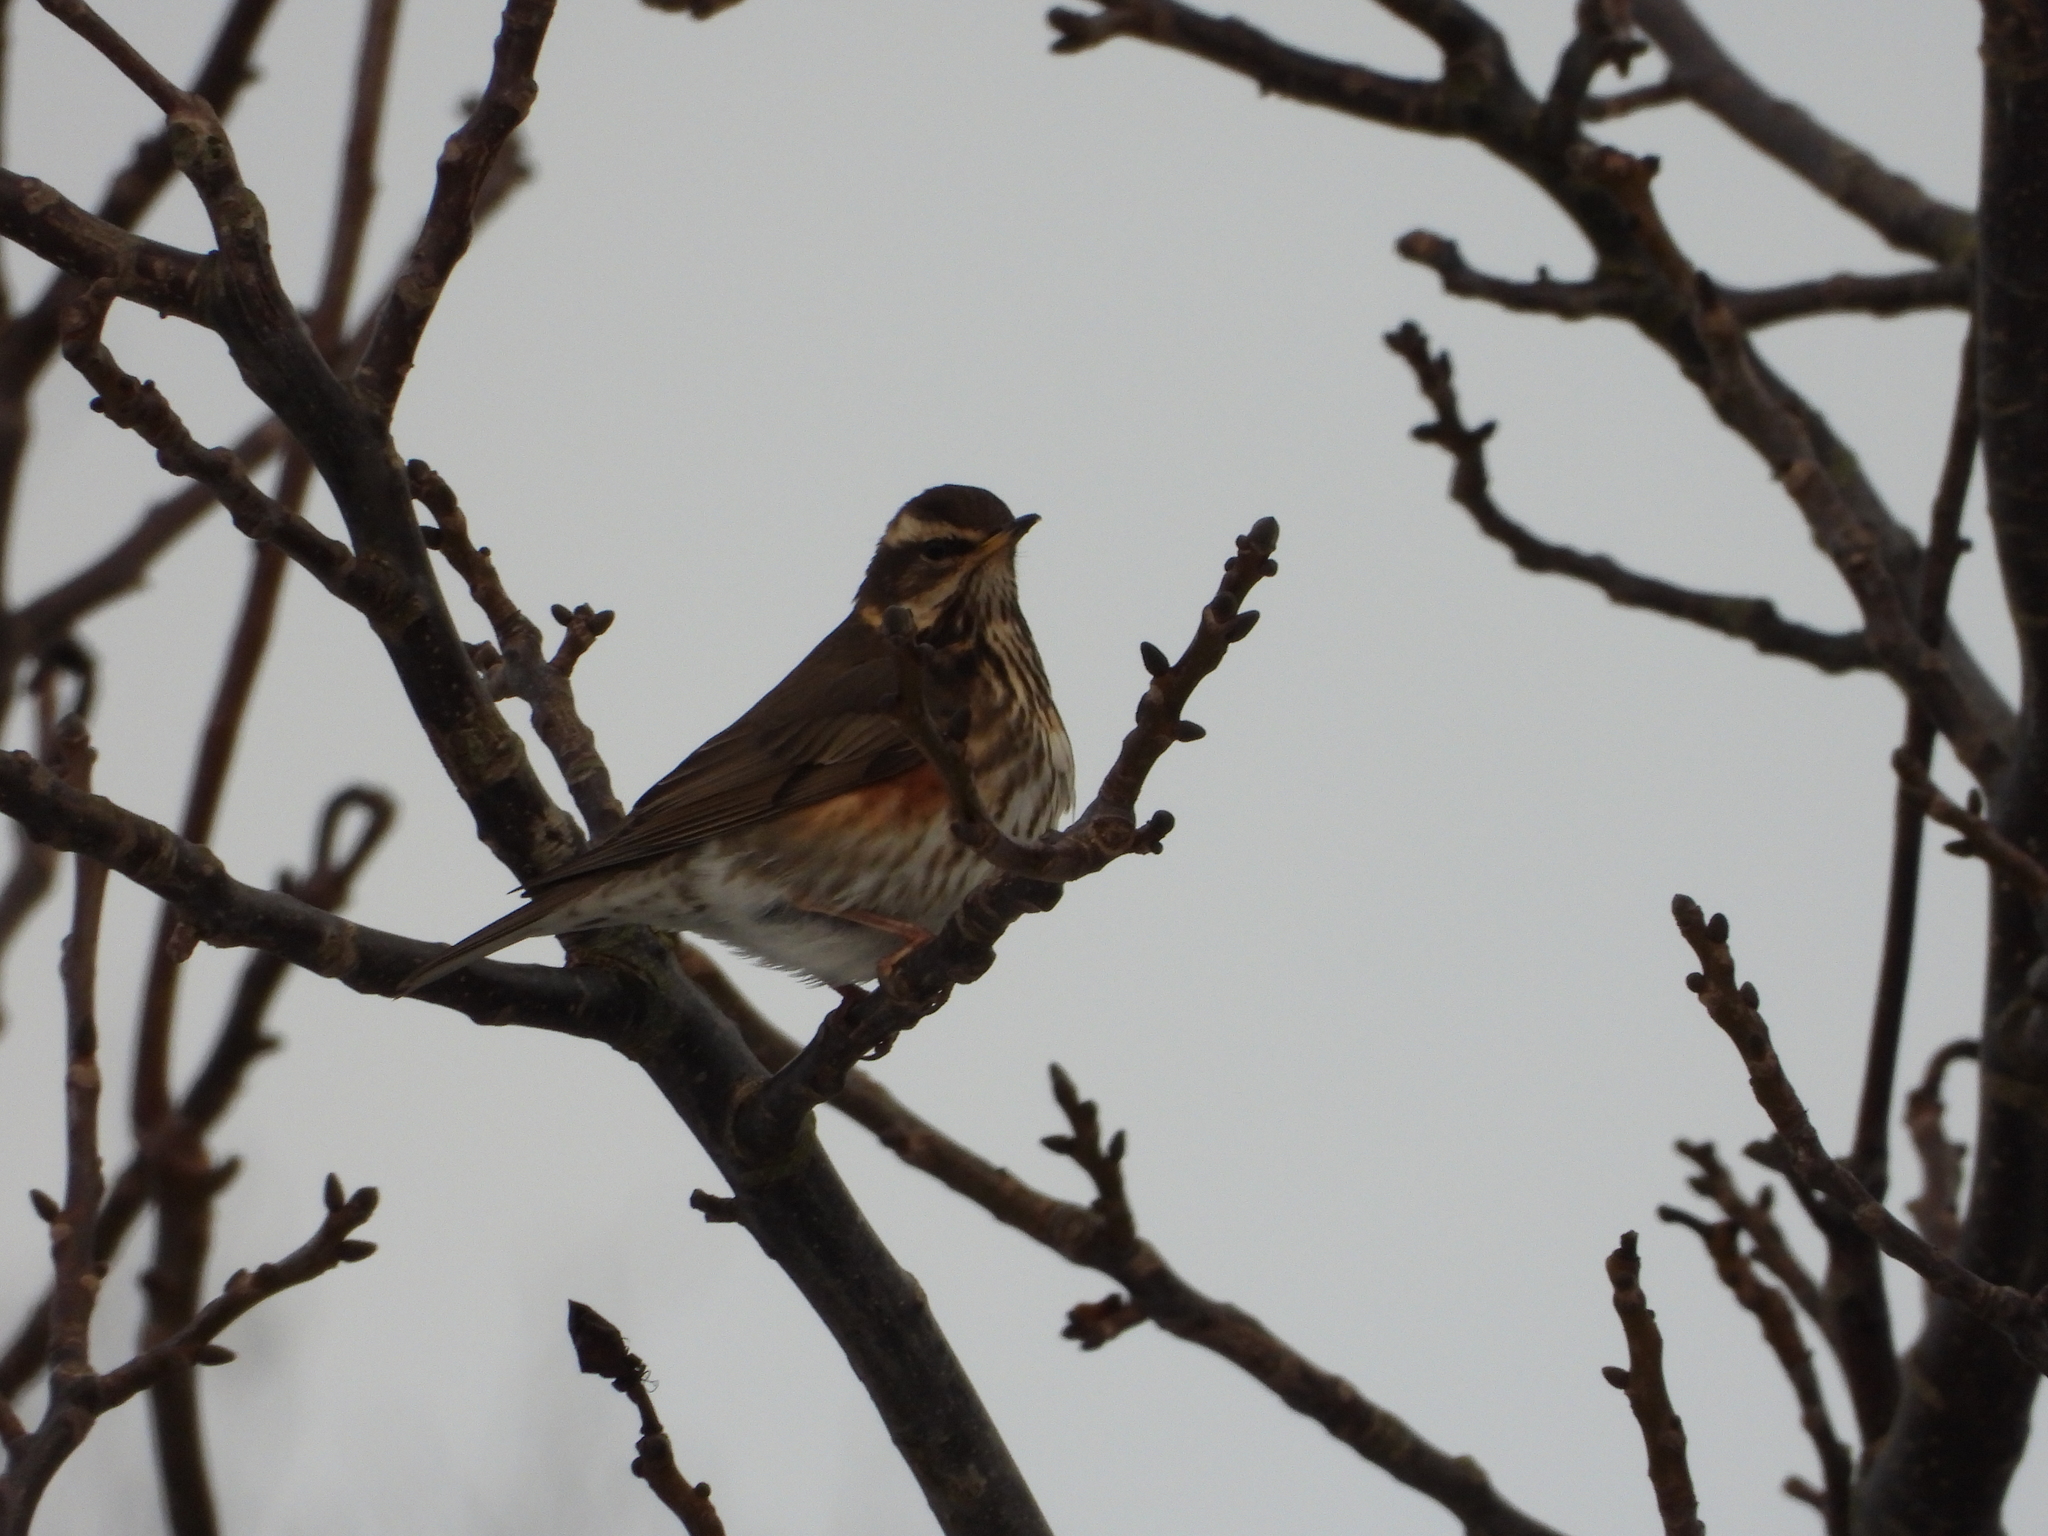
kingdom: Animalia
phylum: Chordata
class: Aves
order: Passeriformes
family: Turdidae
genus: Turdus
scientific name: Turdus iliacus
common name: Redwing
